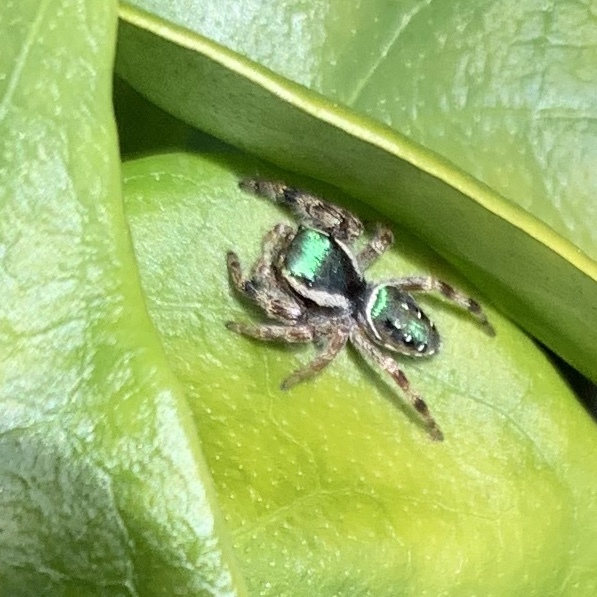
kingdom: Animalia
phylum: Arthropoda
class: Arachnida
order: Araneae
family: Salticidae
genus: Paraphidippus
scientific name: Paraphidippus aurantius
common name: Jumping spiders
